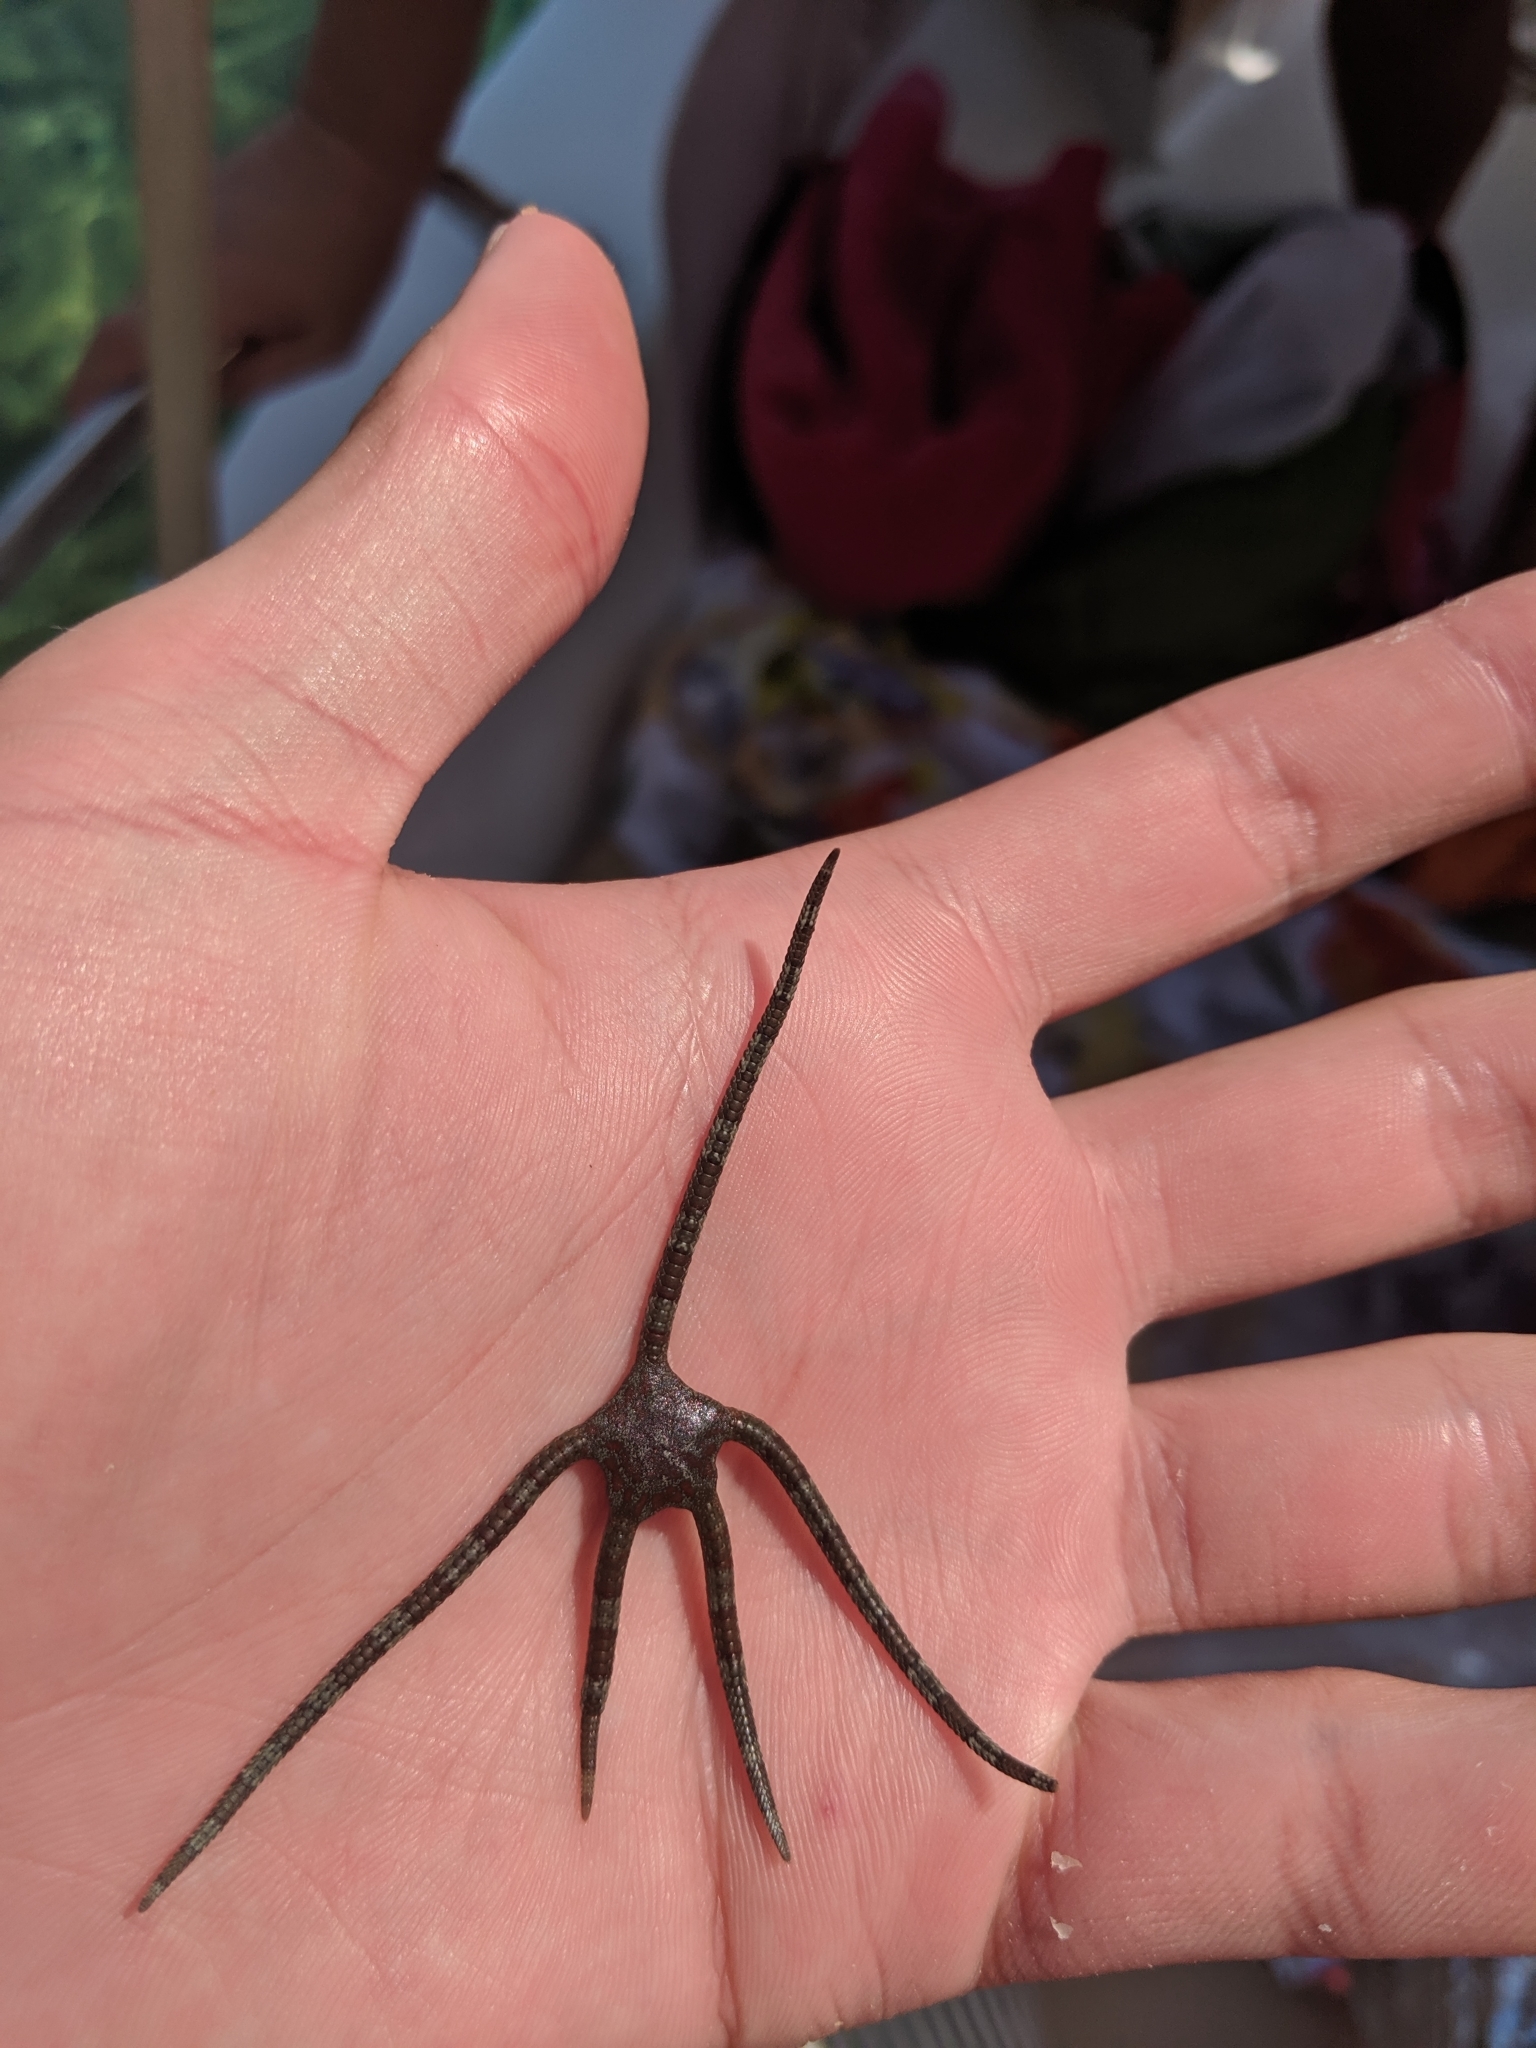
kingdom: Animalia
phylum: Echinodermata
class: Ophiuroidea
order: Ophiacanthida
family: Ophiodermatidae
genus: Ophioderma
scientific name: Ophioderma longicaudum
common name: Smooth brittle-star
